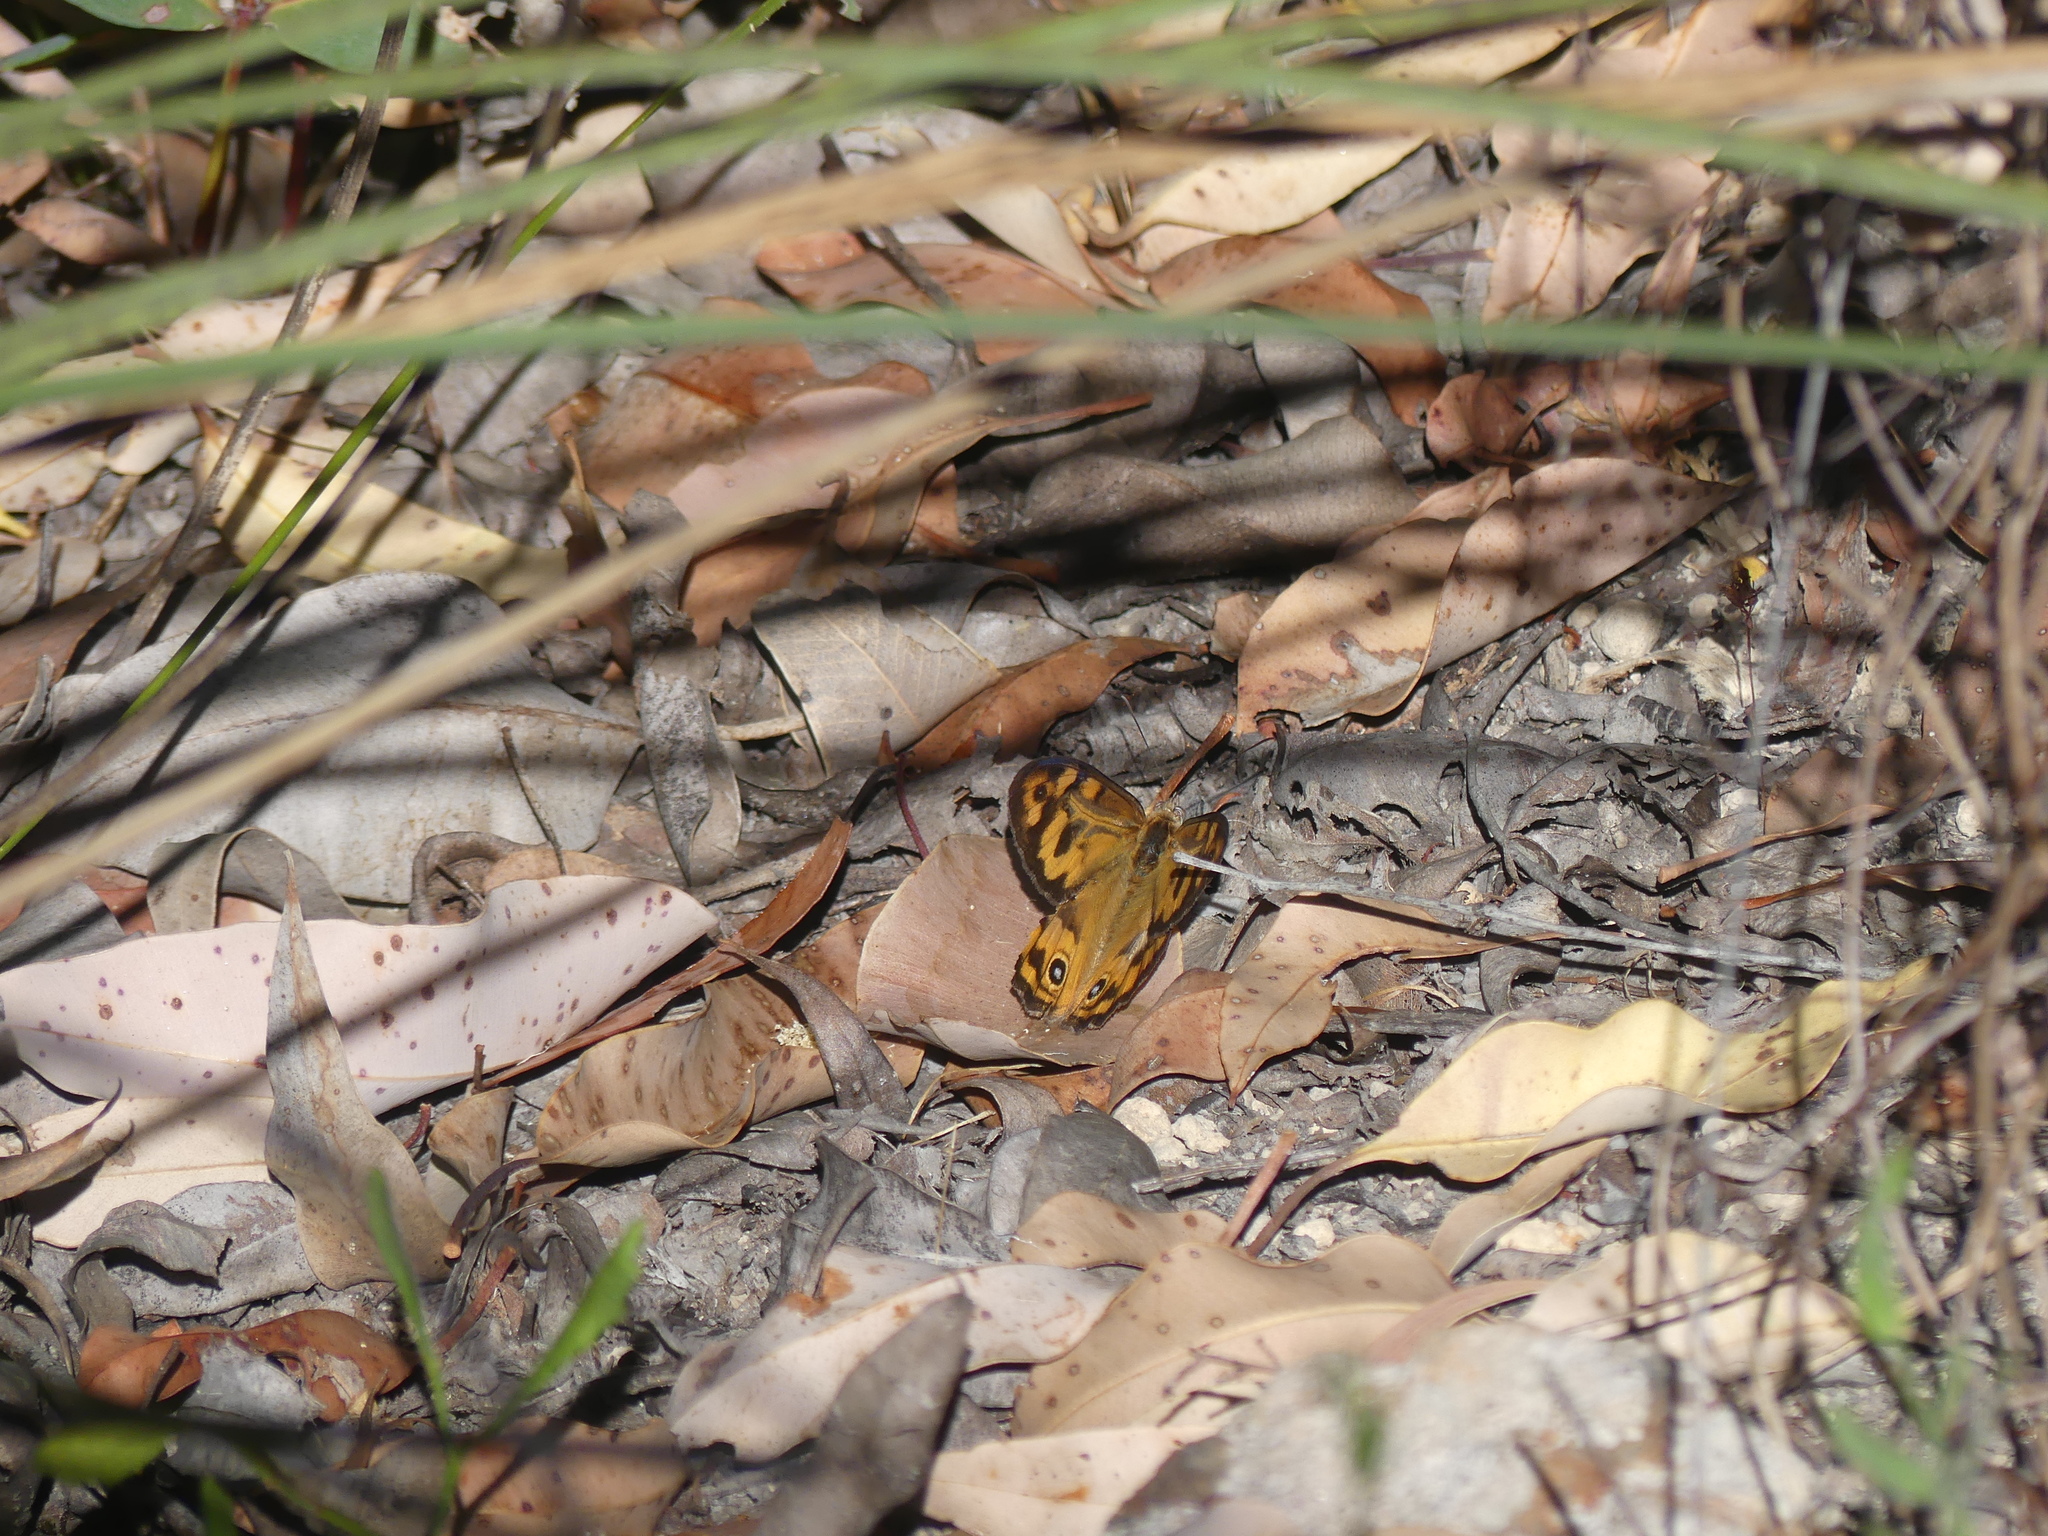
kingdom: Animalia
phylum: Arthropoda
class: Insecta
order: Lepidoptera
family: Nymphalidae
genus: Heteronympha
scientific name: Heteronympha merope
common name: Common brown
